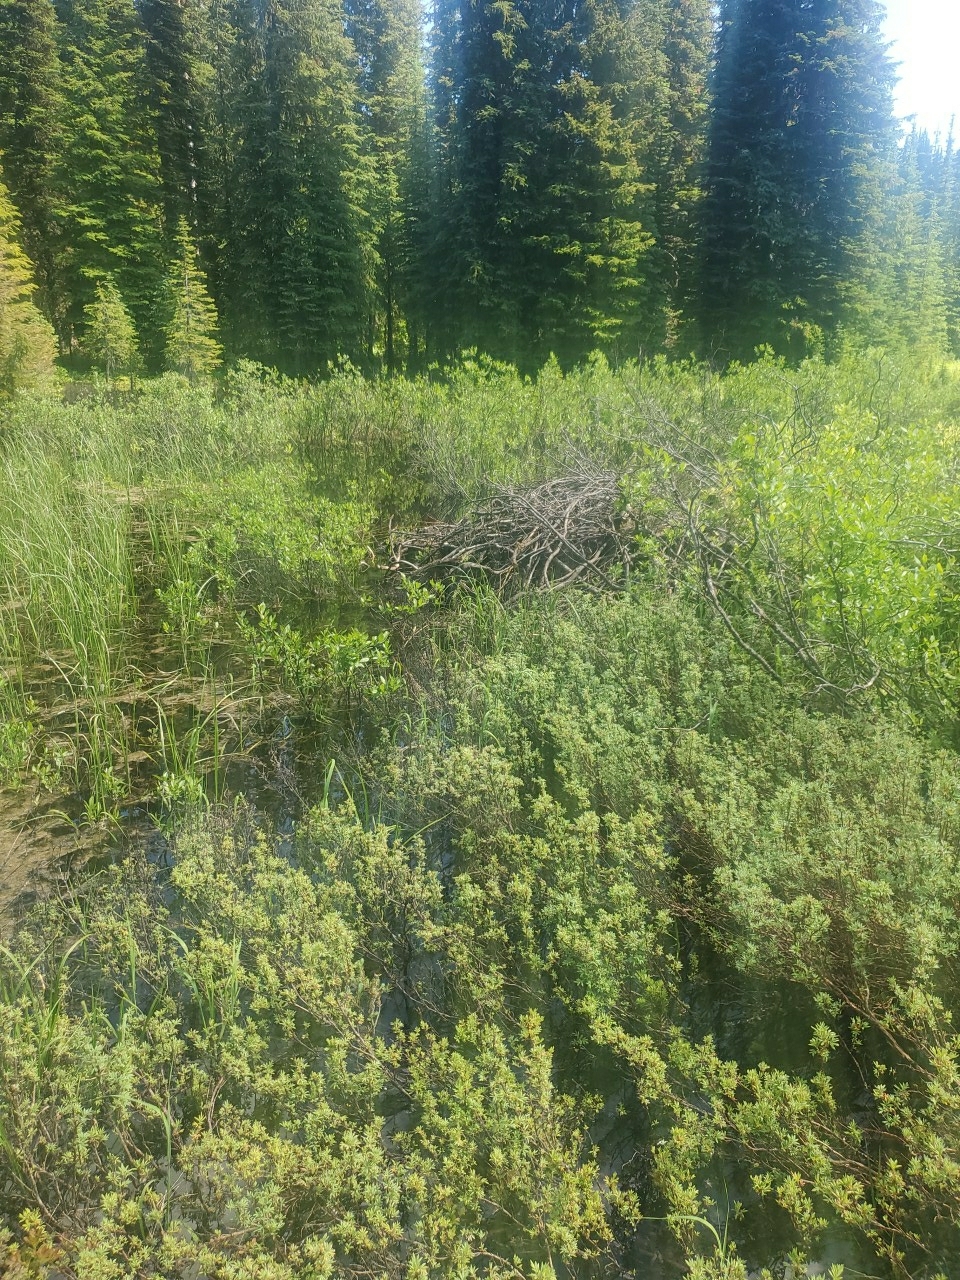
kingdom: Animalia
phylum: Chordata
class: Mammalia
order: Rodentia
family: Castoridae
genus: Castor
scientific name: Castor canadensis
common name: American beaver
